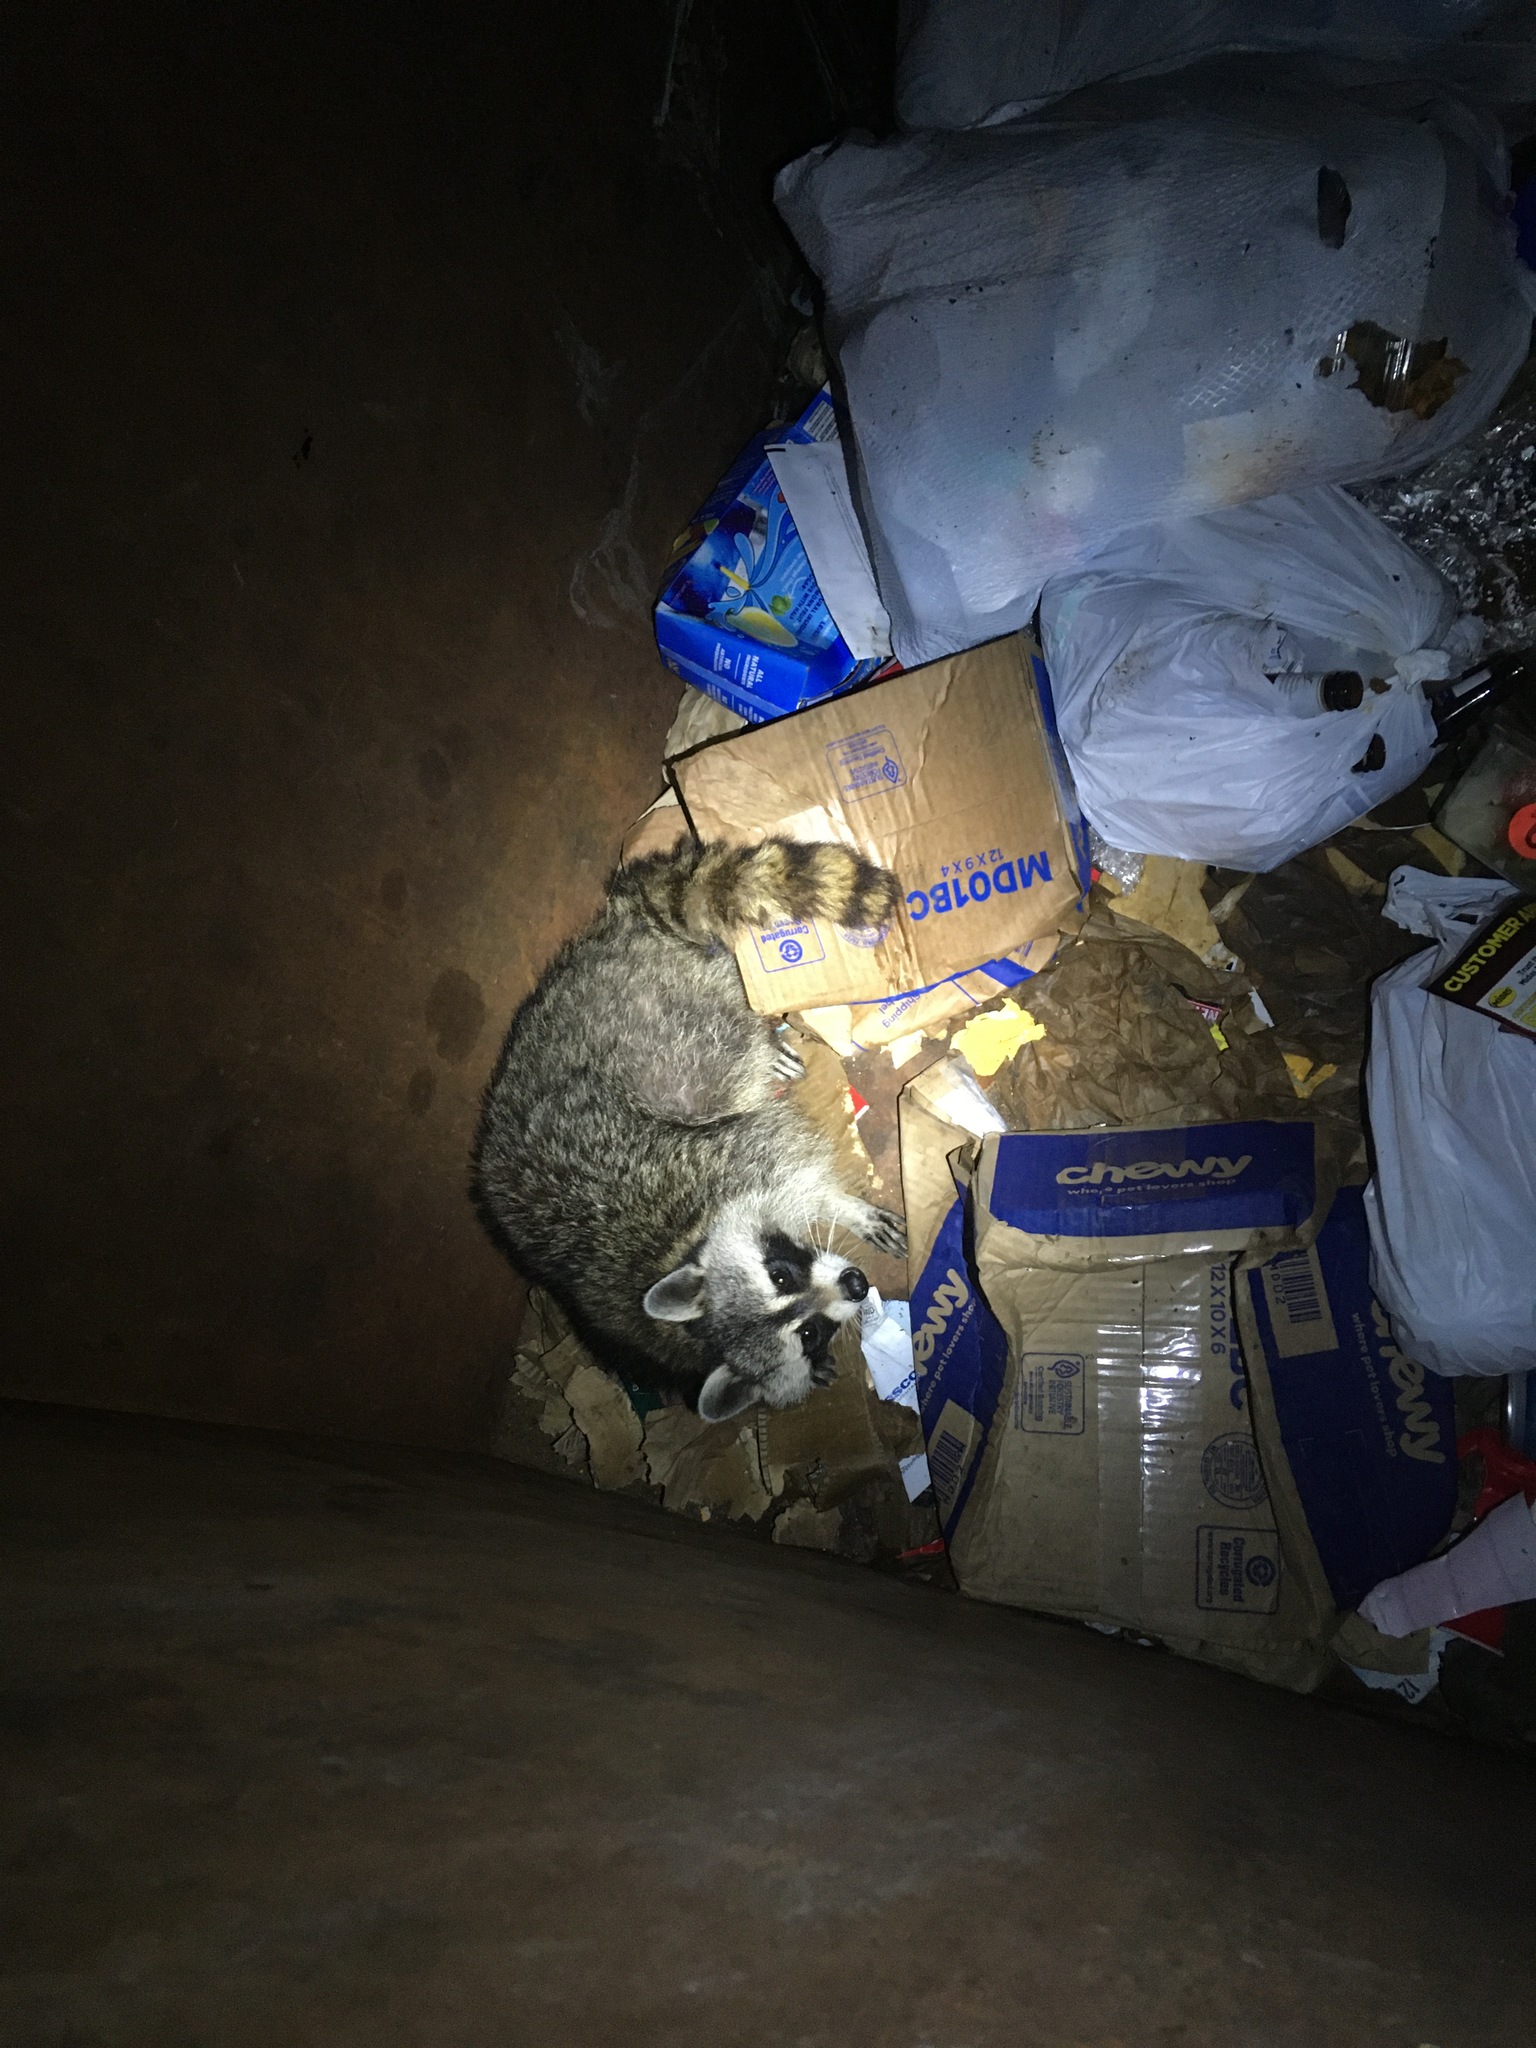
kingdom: Animalia
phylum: Chordata
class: Mammalia
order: Carnivora
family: Procyonidae
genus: Procyon
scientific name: Procyon lotor
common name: Raccoon
